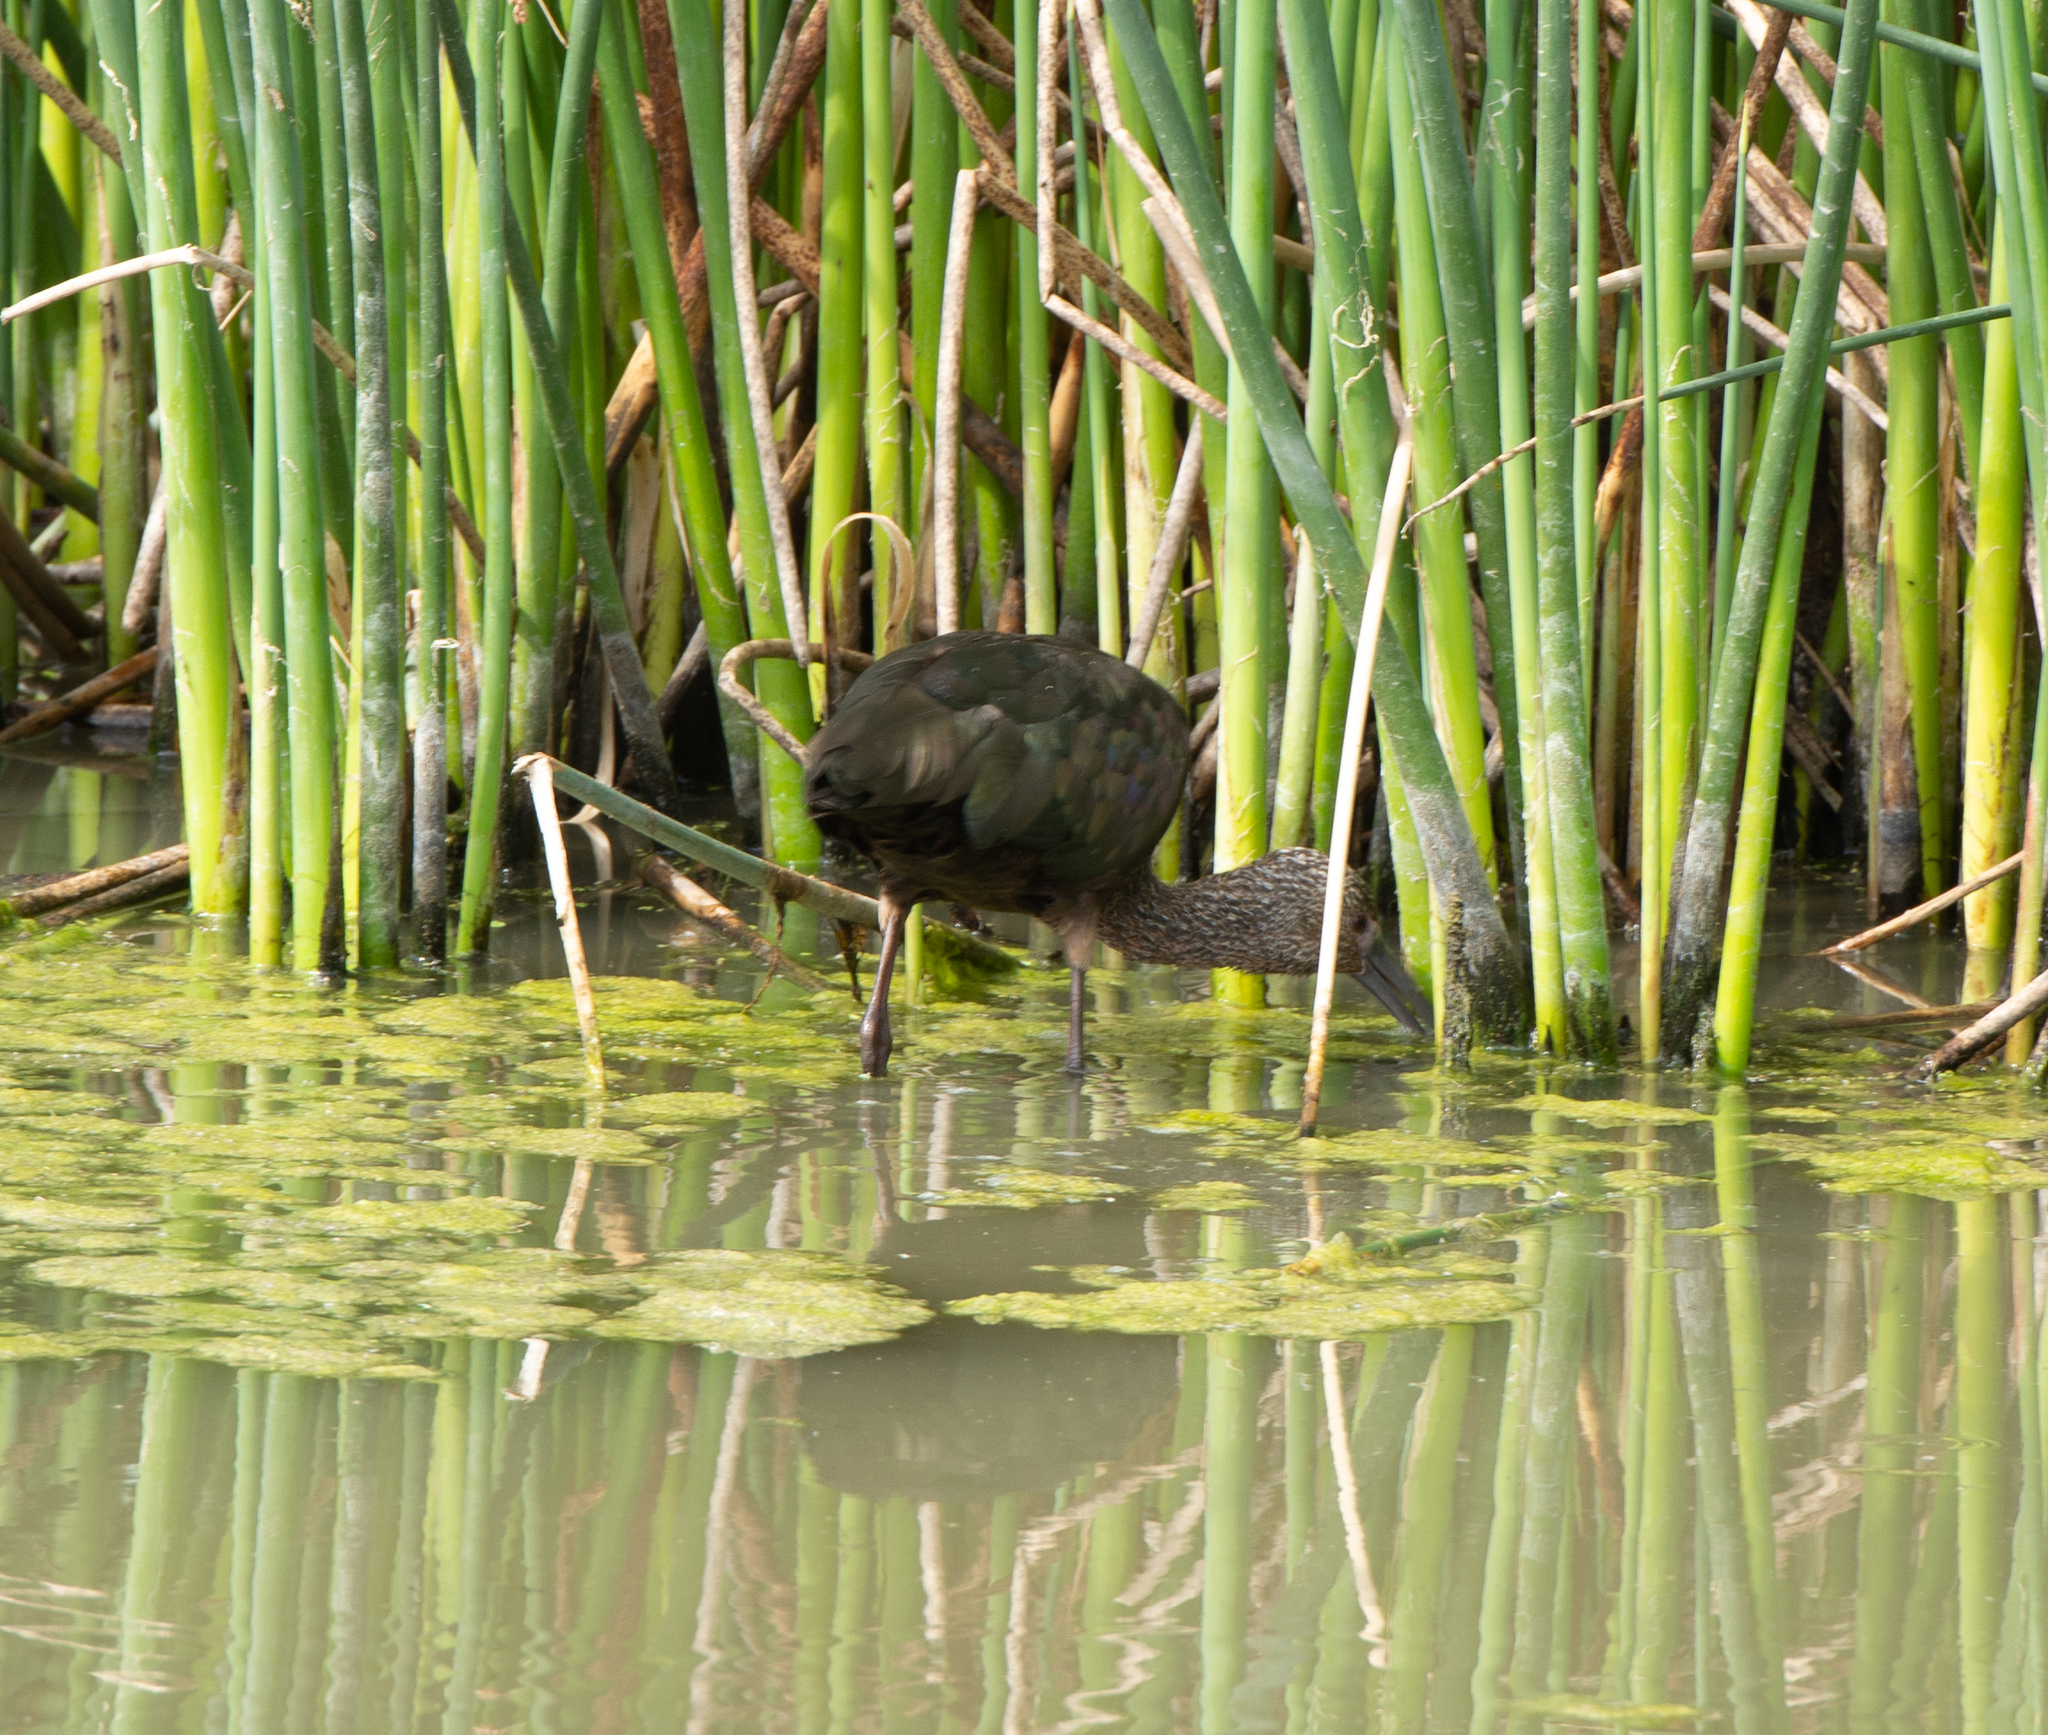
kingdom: Animalia
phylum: Chordata
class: Aves
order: Pelecaniformes
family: Threskiornithidae
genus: Plegadis
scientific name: Plegadis chihi
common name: White-faced ibis
